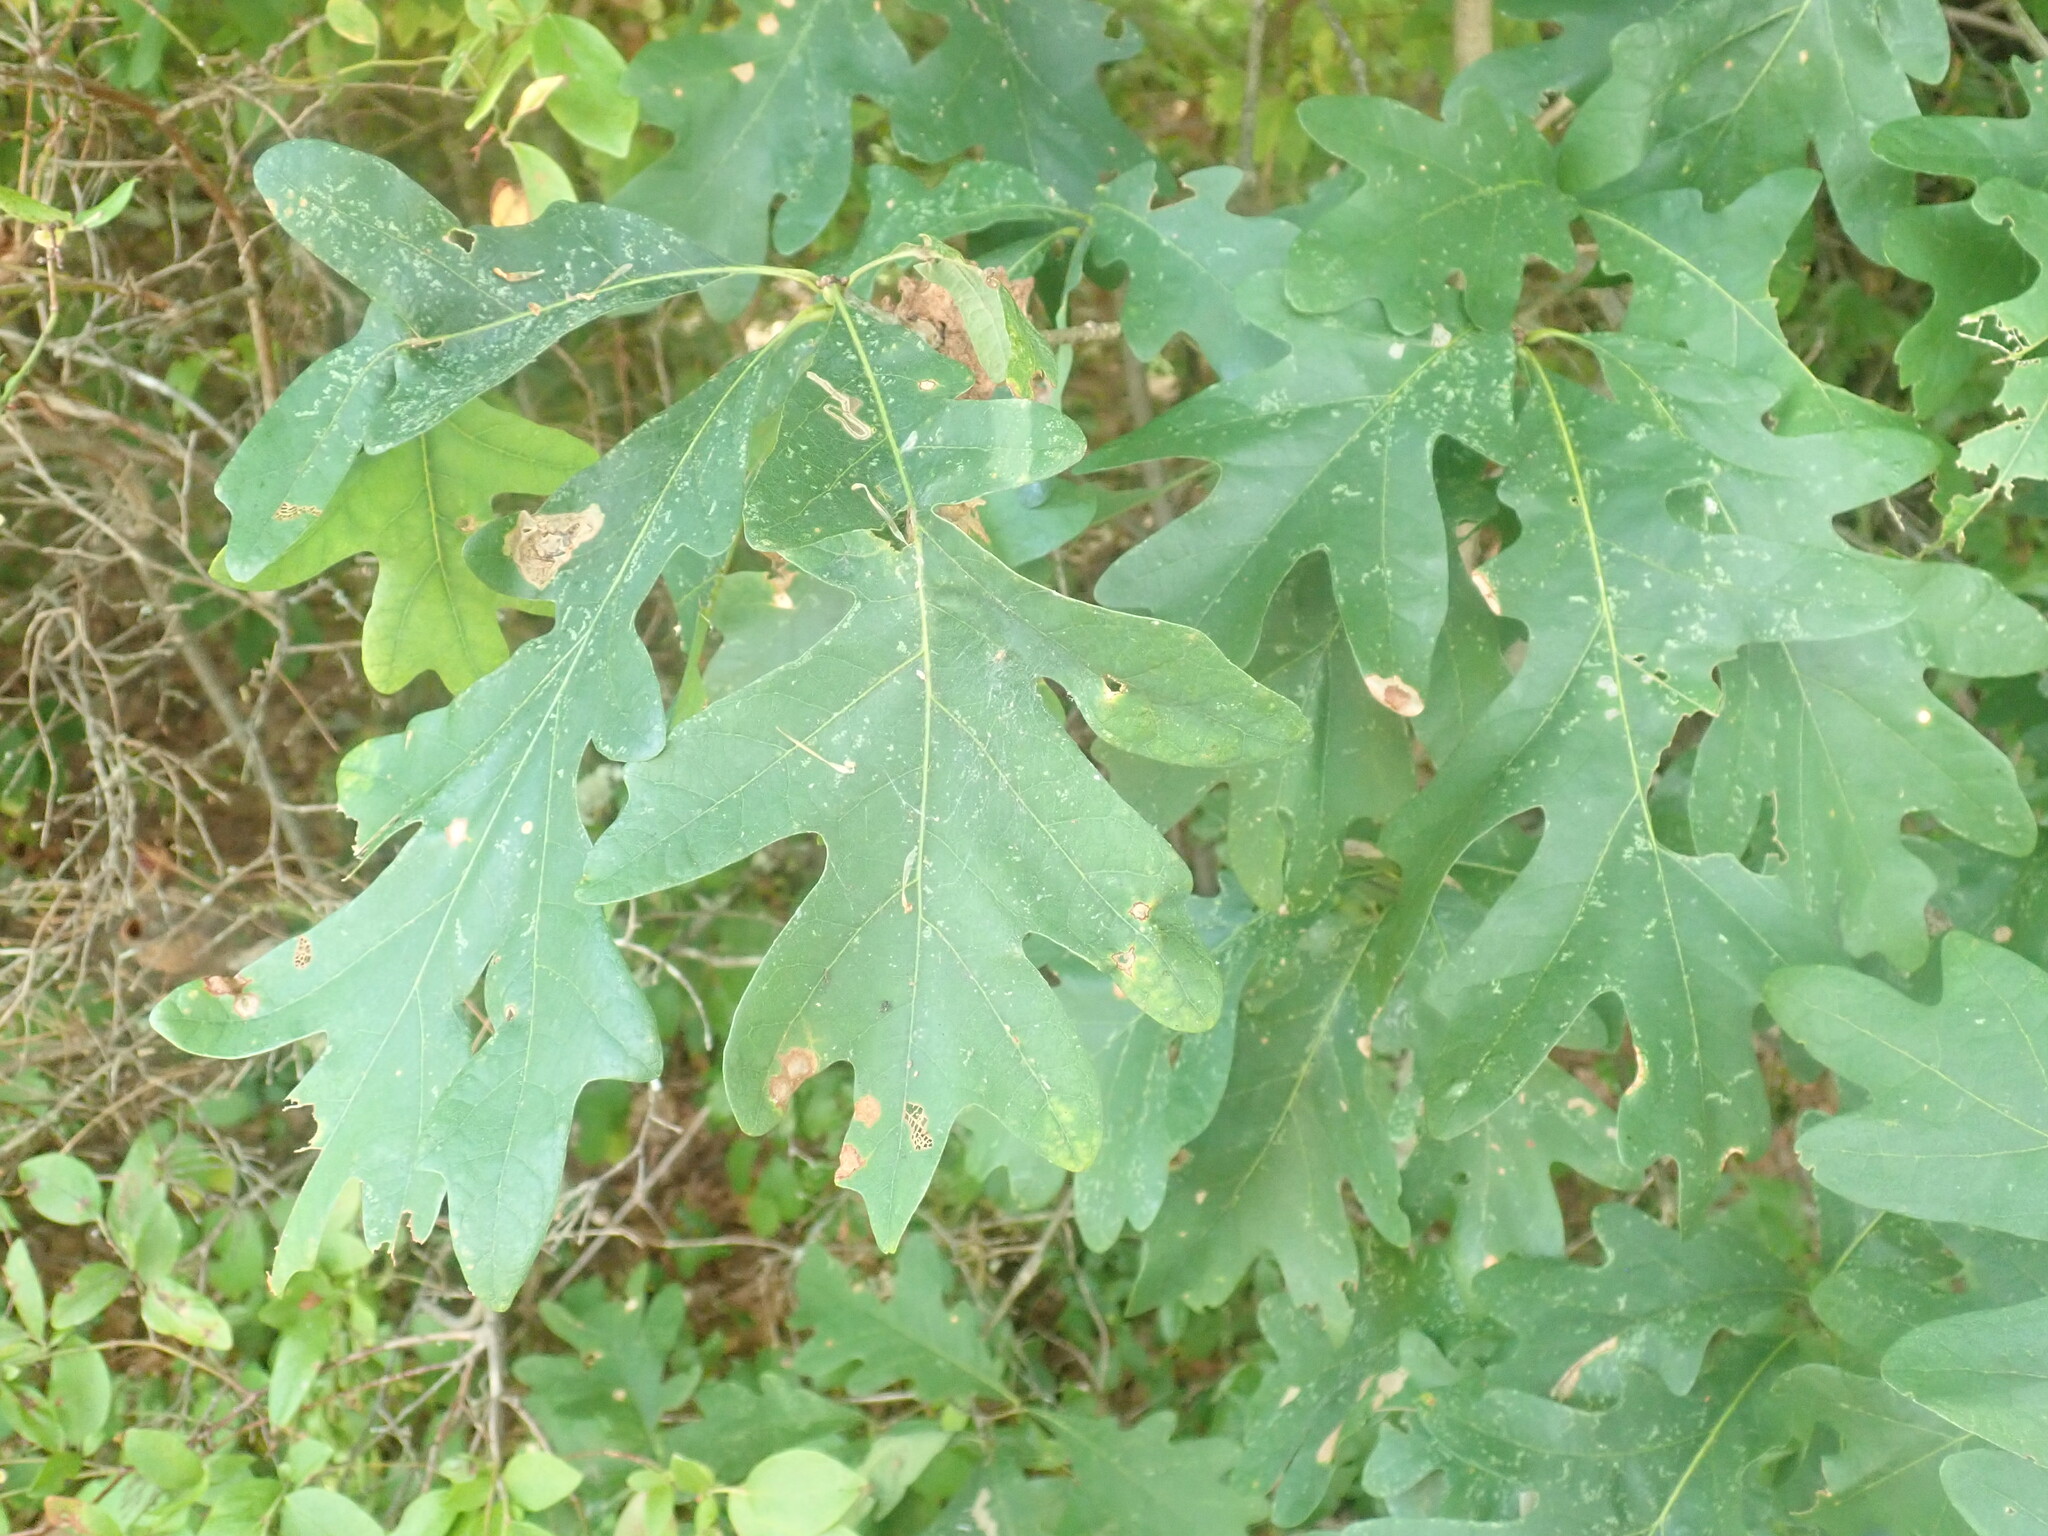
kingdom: Plantae
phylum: Tracheophyta
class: Magnoliopsida
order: Fagales
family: Fagaceae
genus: Quercus
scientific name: Quercus alba
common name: White oak
